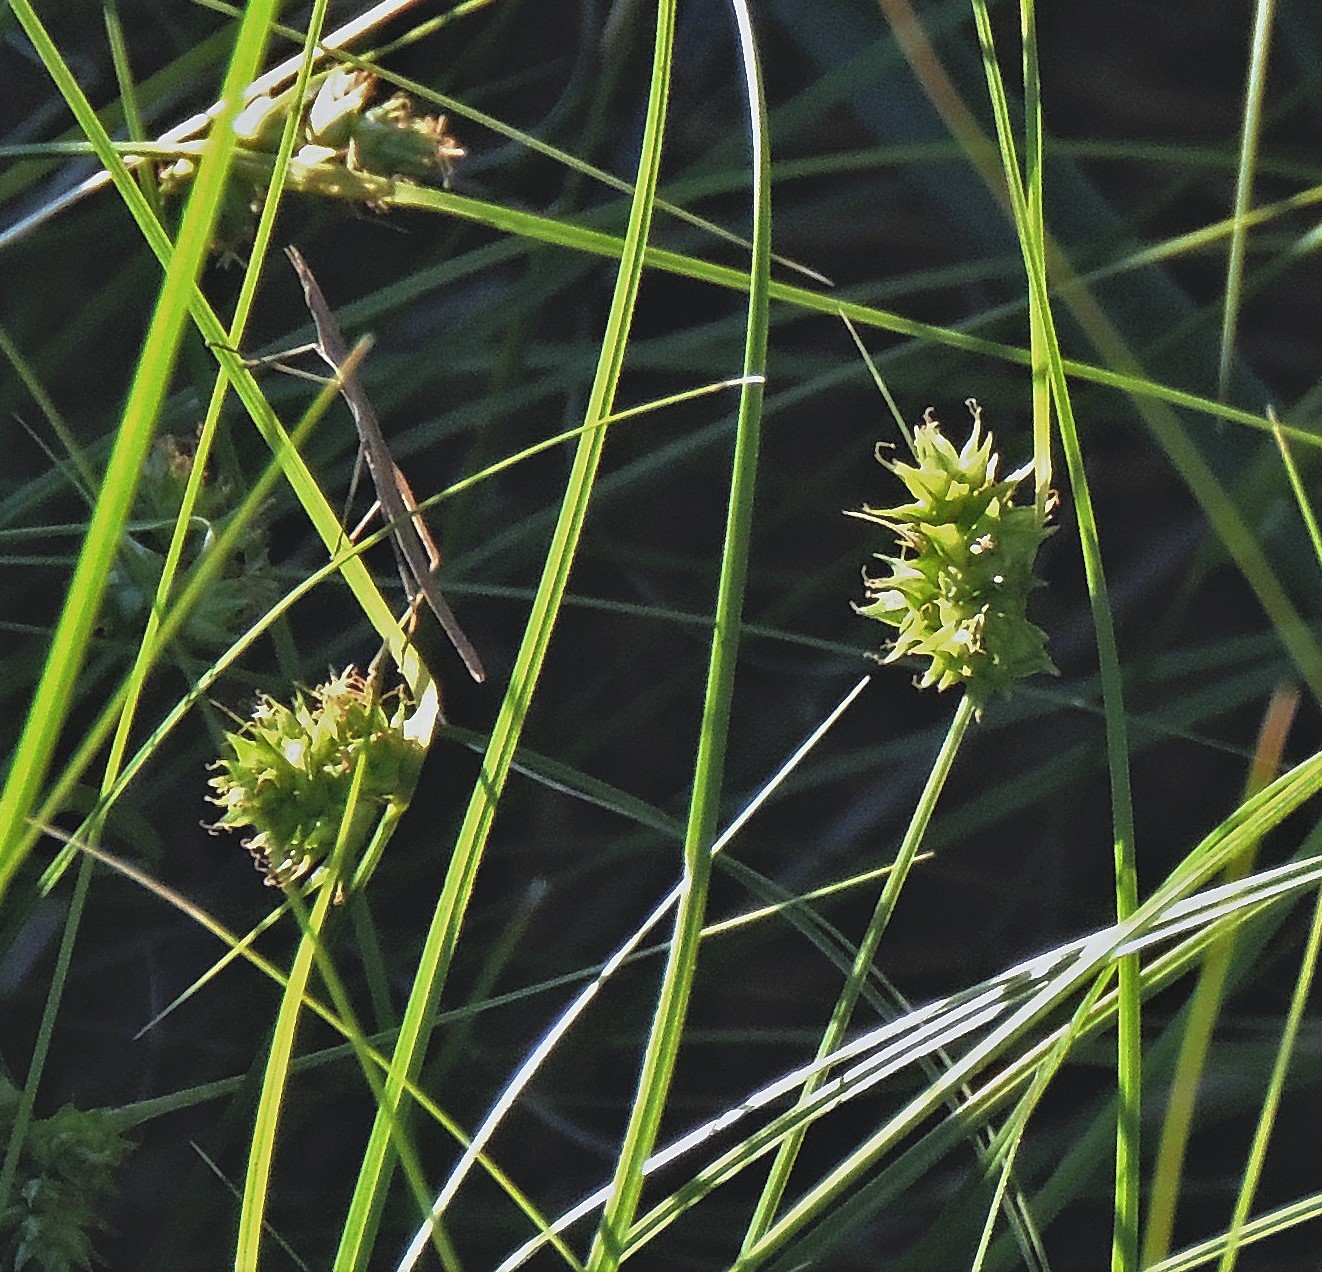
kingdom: Plantae
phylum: Tracheophyta
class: Liliopsida
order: Poales
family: Cyperaceae
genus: Carex
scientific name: Carex bonariensis
